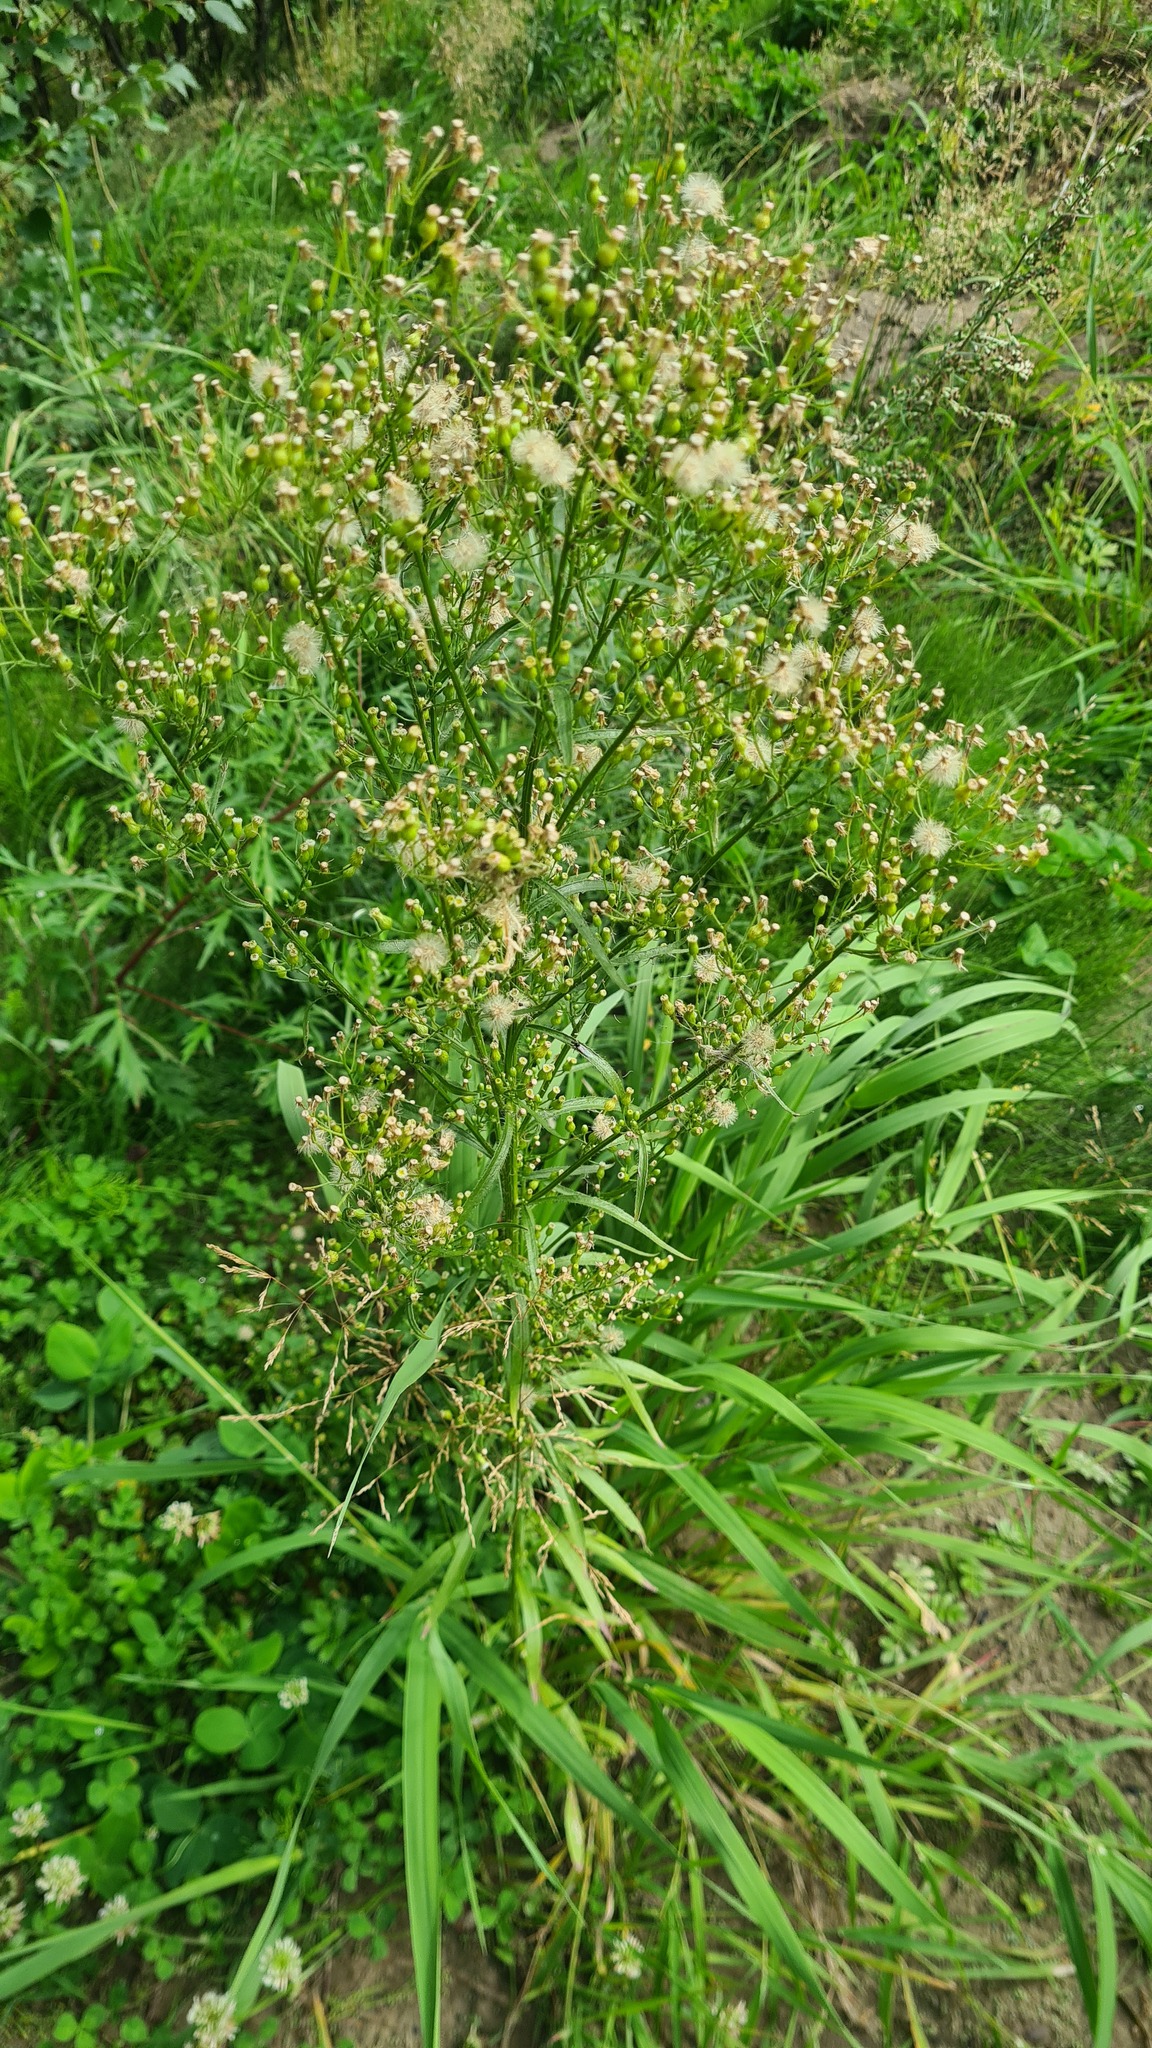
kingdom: Plantae
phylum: Tracheophyta
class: Magnoliopsida
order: Asterales
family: Asteraceae
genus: Erigeron
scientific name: Erigeron canadensis
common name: Canadian fleabane
